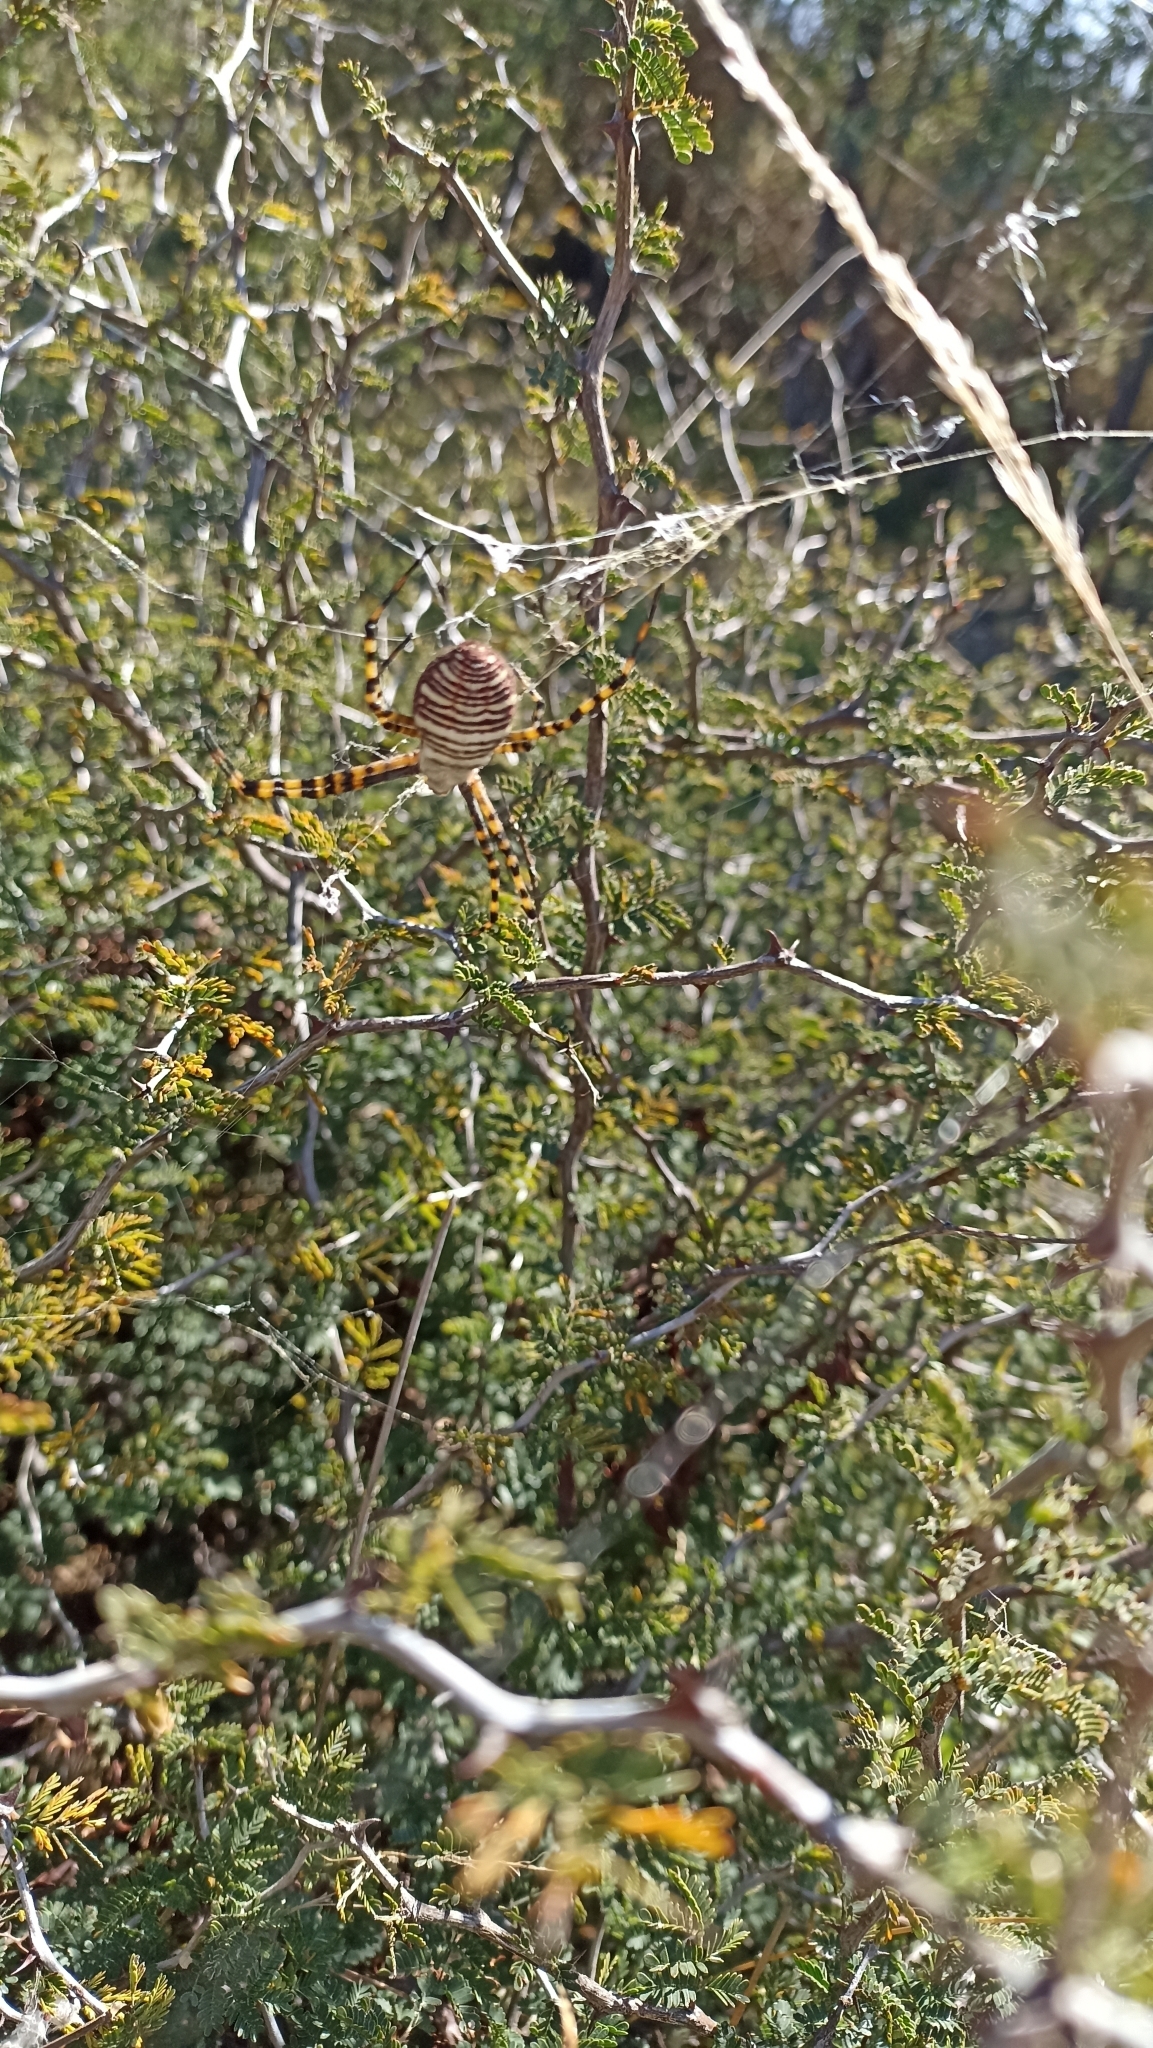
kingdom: Animalia
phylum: Arthropoda
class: Arachnida
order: Araneae
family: Araneidae
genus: Argiope
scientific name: Argiope trifasciata
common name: Banded garden spider
